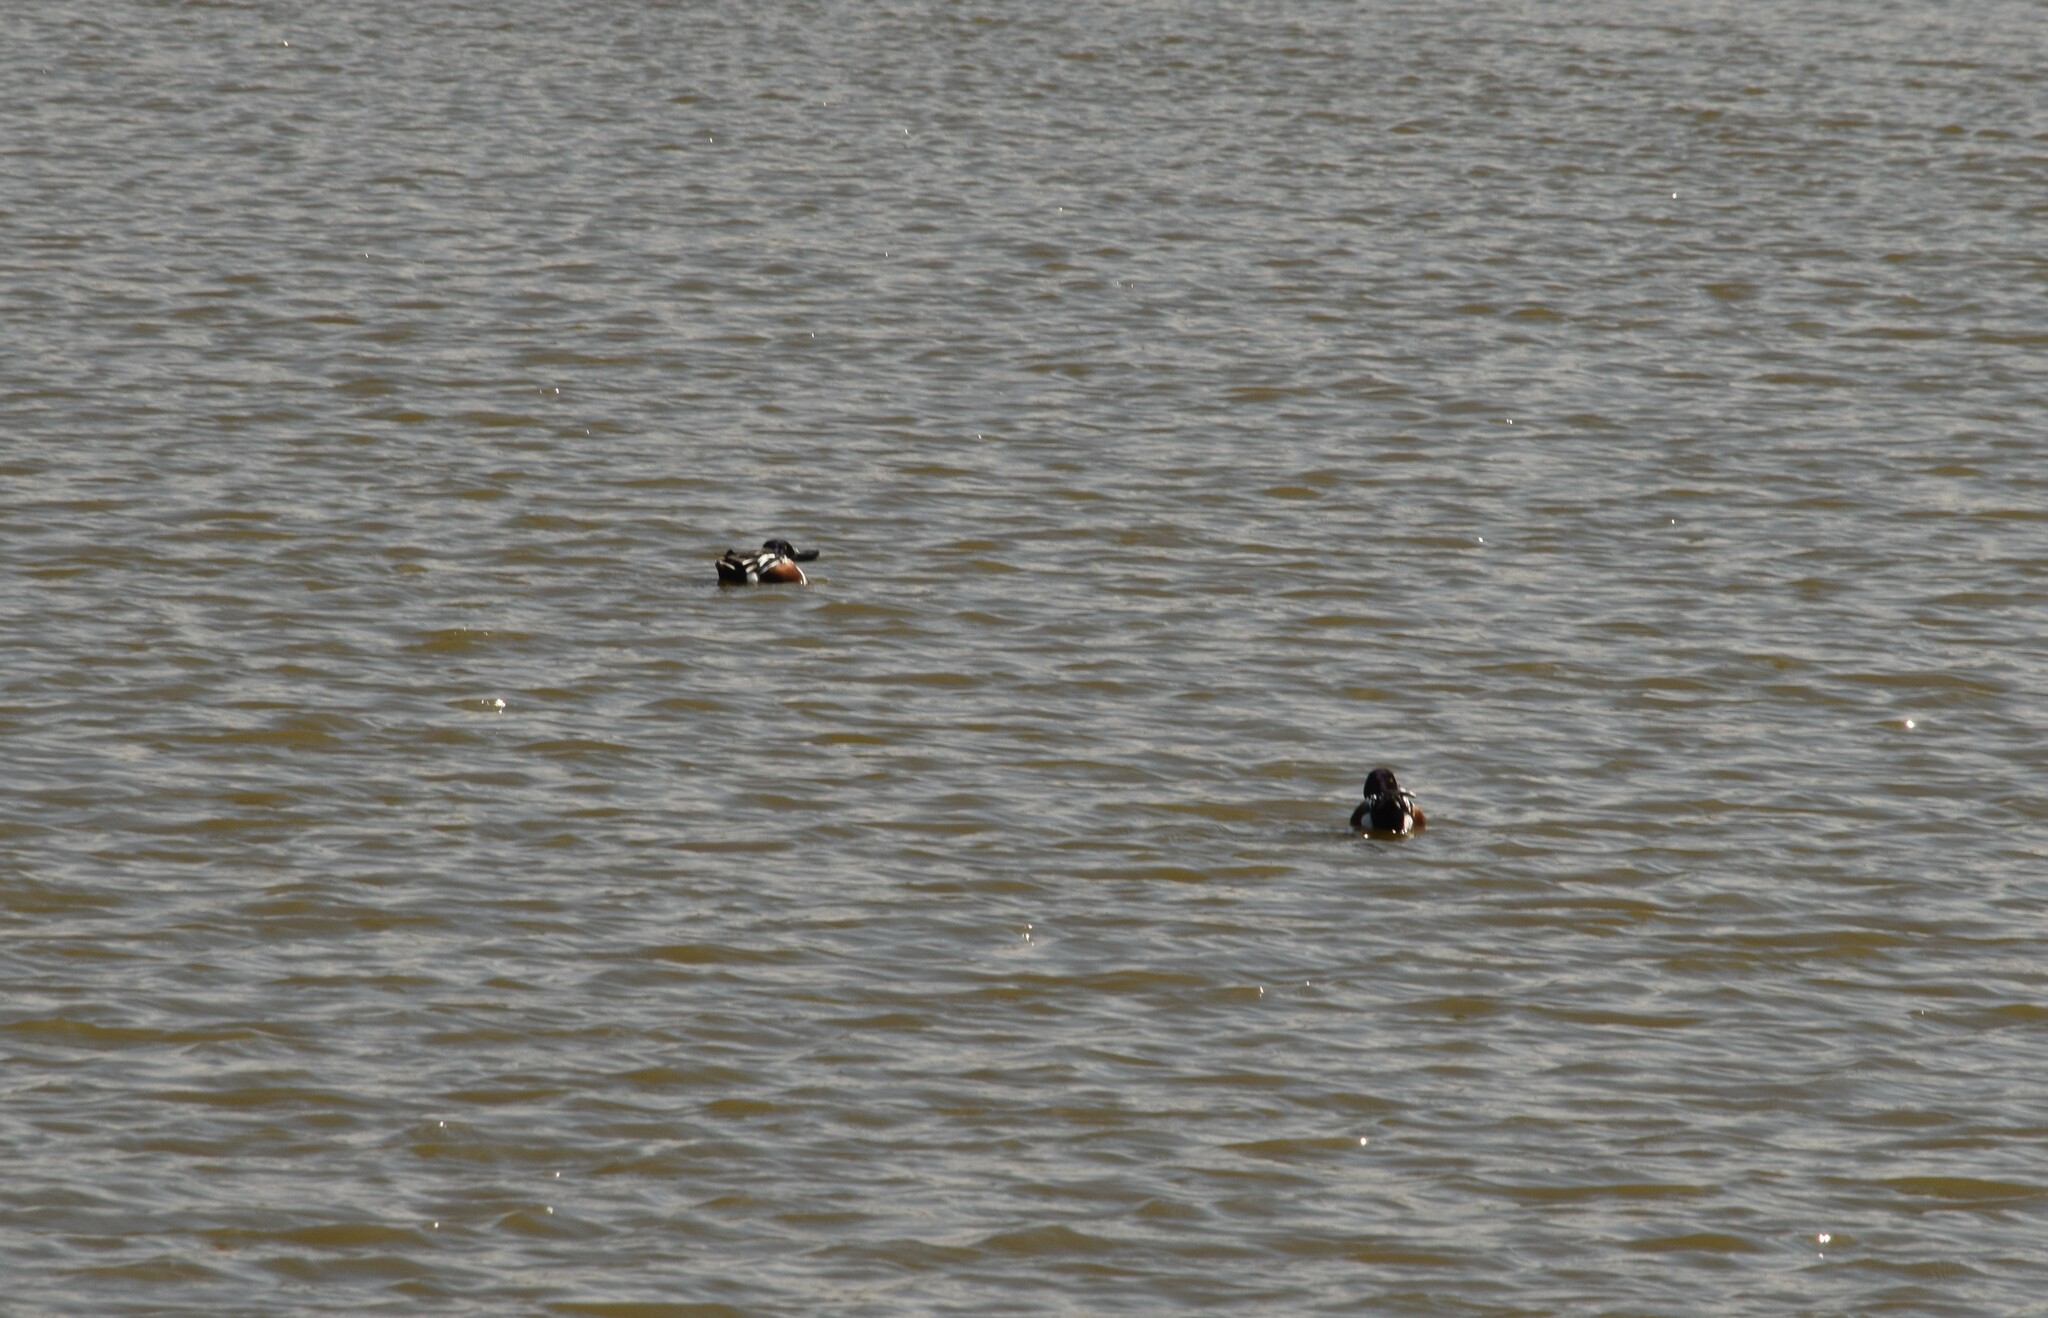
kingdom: Animalia
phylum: Chordata
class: Aves
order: Anseriformes
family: Anatidae
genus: Spatula
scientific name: Spatula clypeata
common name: Northern shoveler
